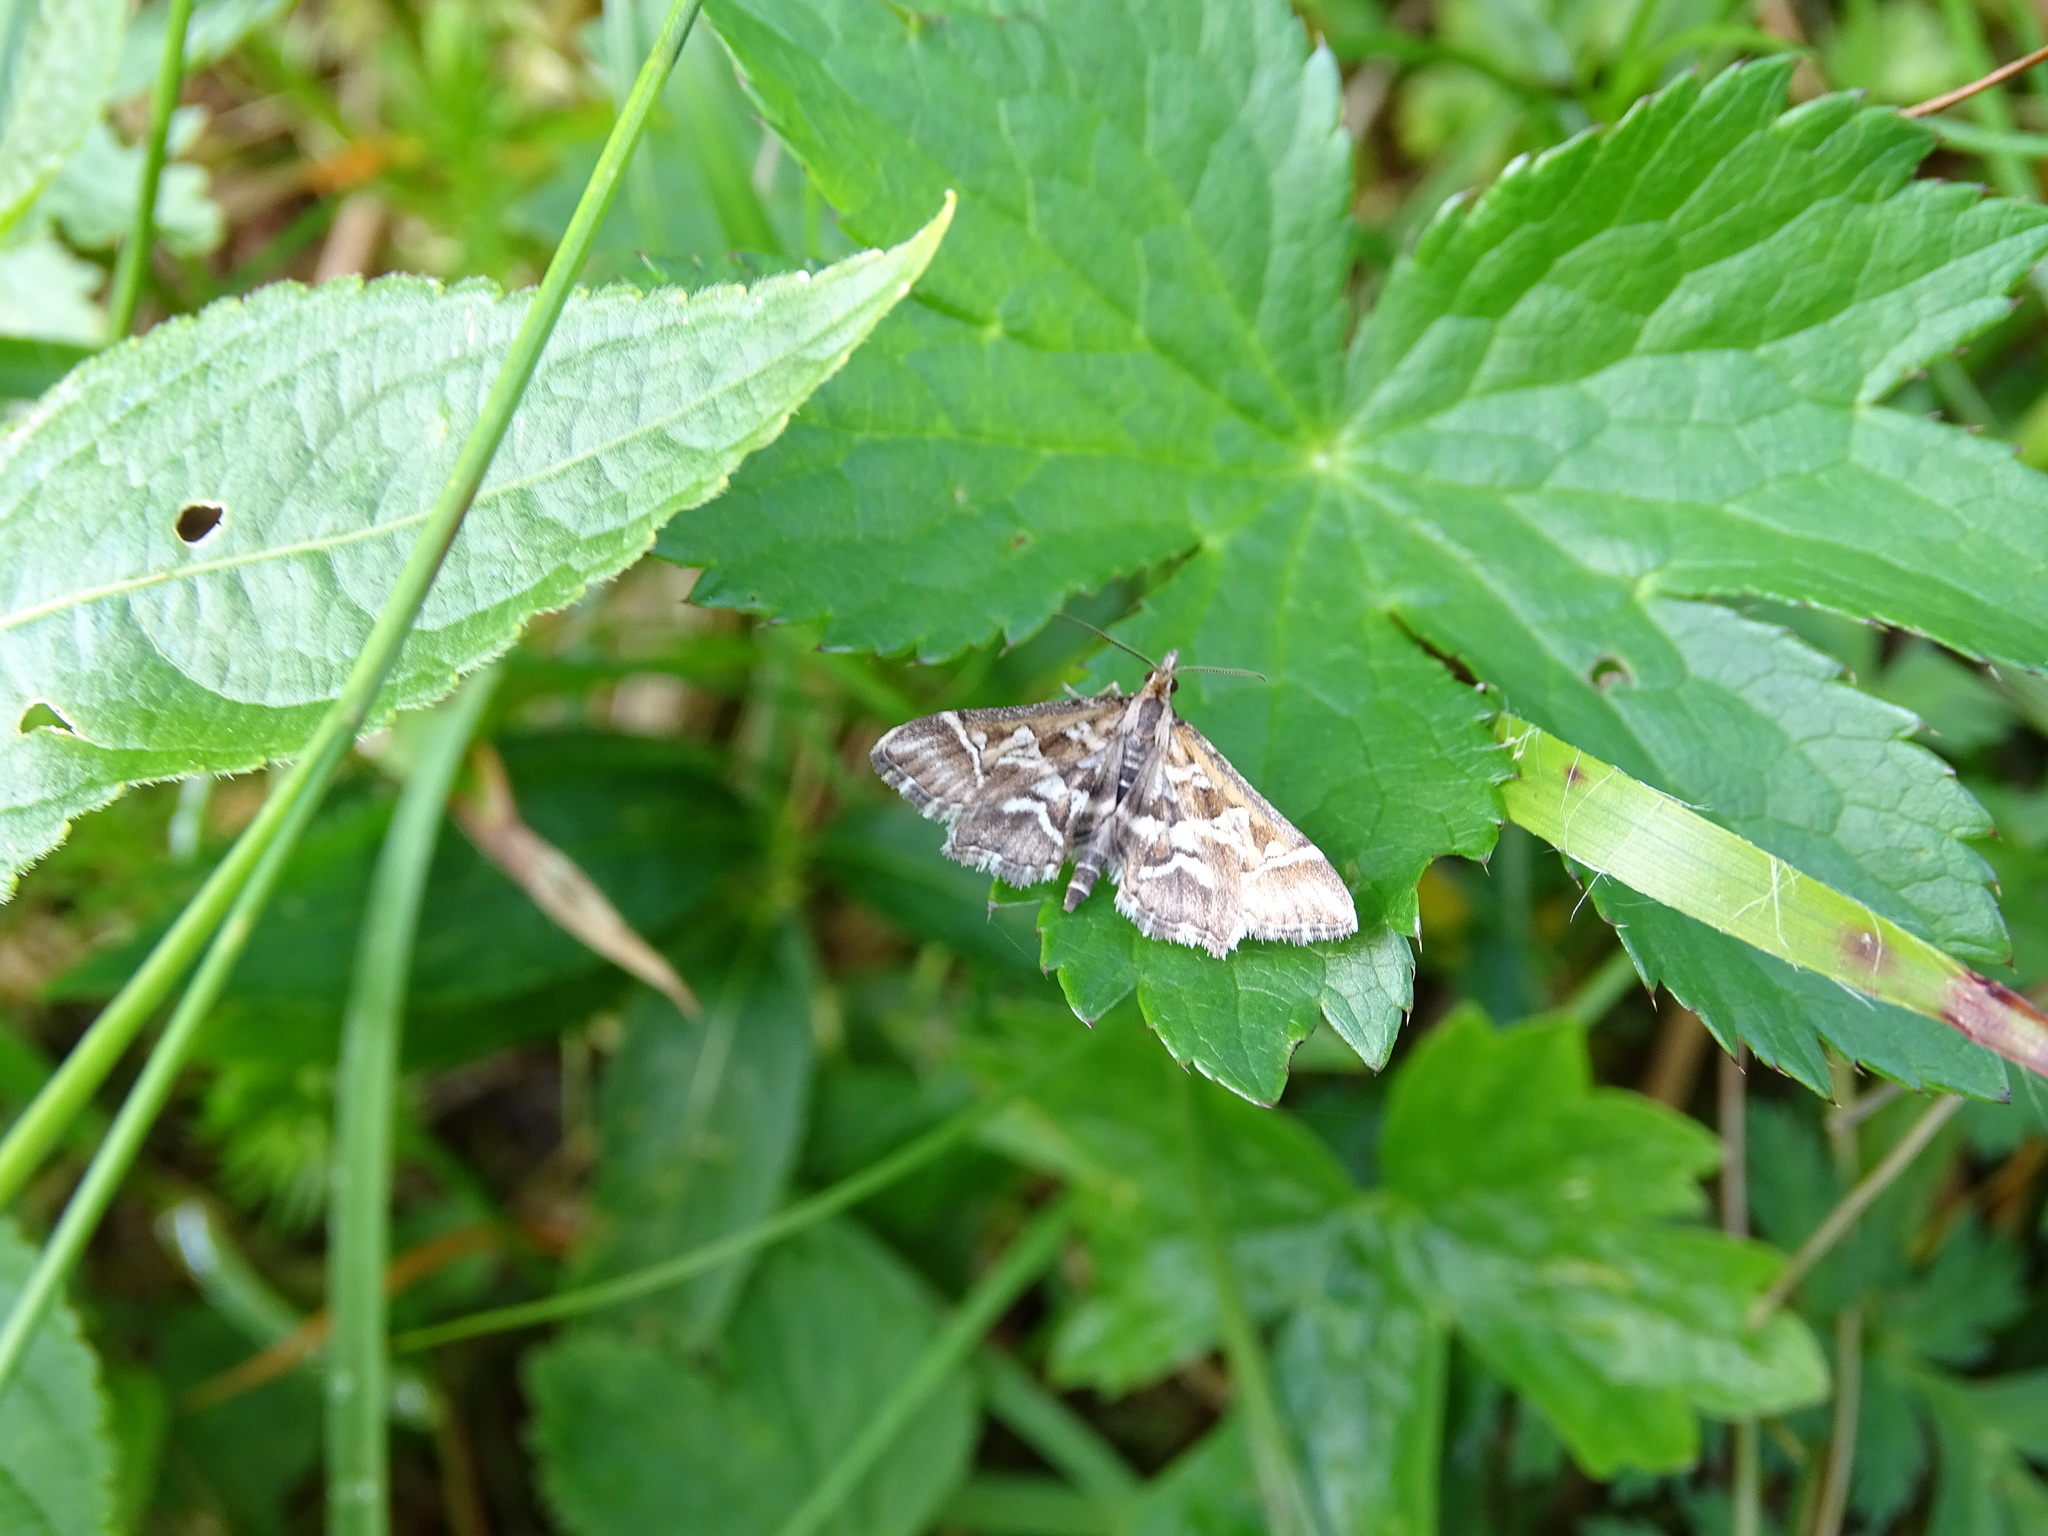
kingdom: Animalia
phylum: Arthropoda
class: Insecta
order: Lepidoptera
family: Crambidae
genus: Diasemia
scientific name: Diasemia reticularis
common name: Lettered china-mark
